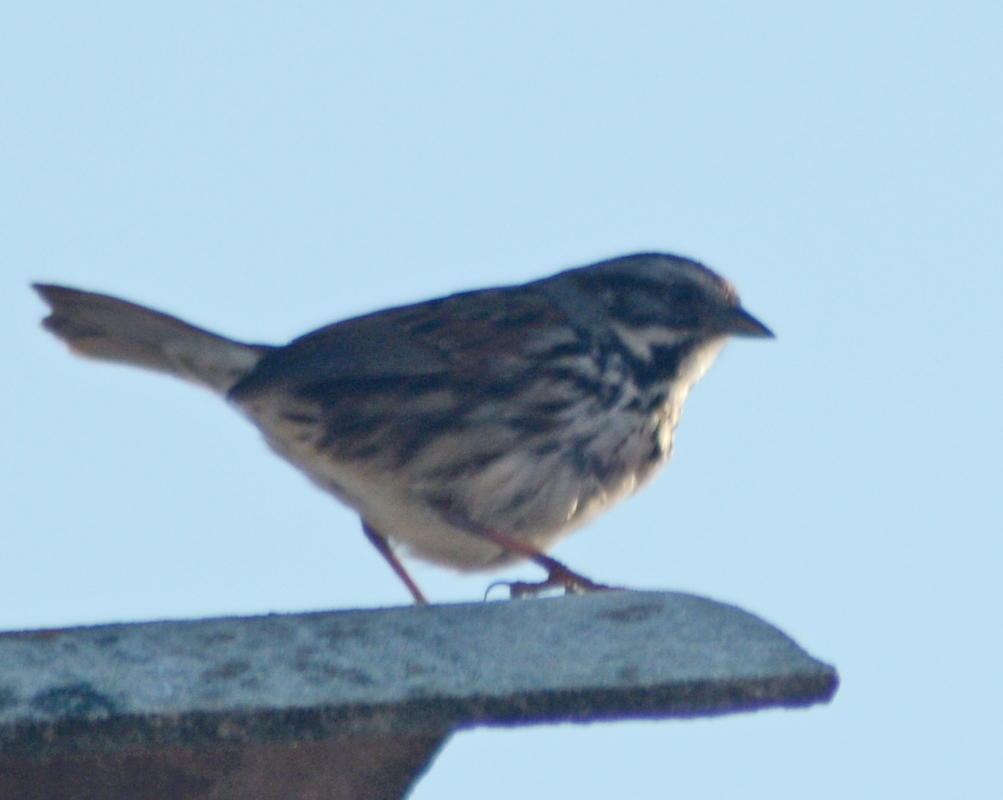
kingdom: Animalia
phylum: Chordata
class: Aves
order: Passeriformes
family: Passerellidae
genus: Melospiza
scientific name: Melospiza melodia
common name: Song sparrow
